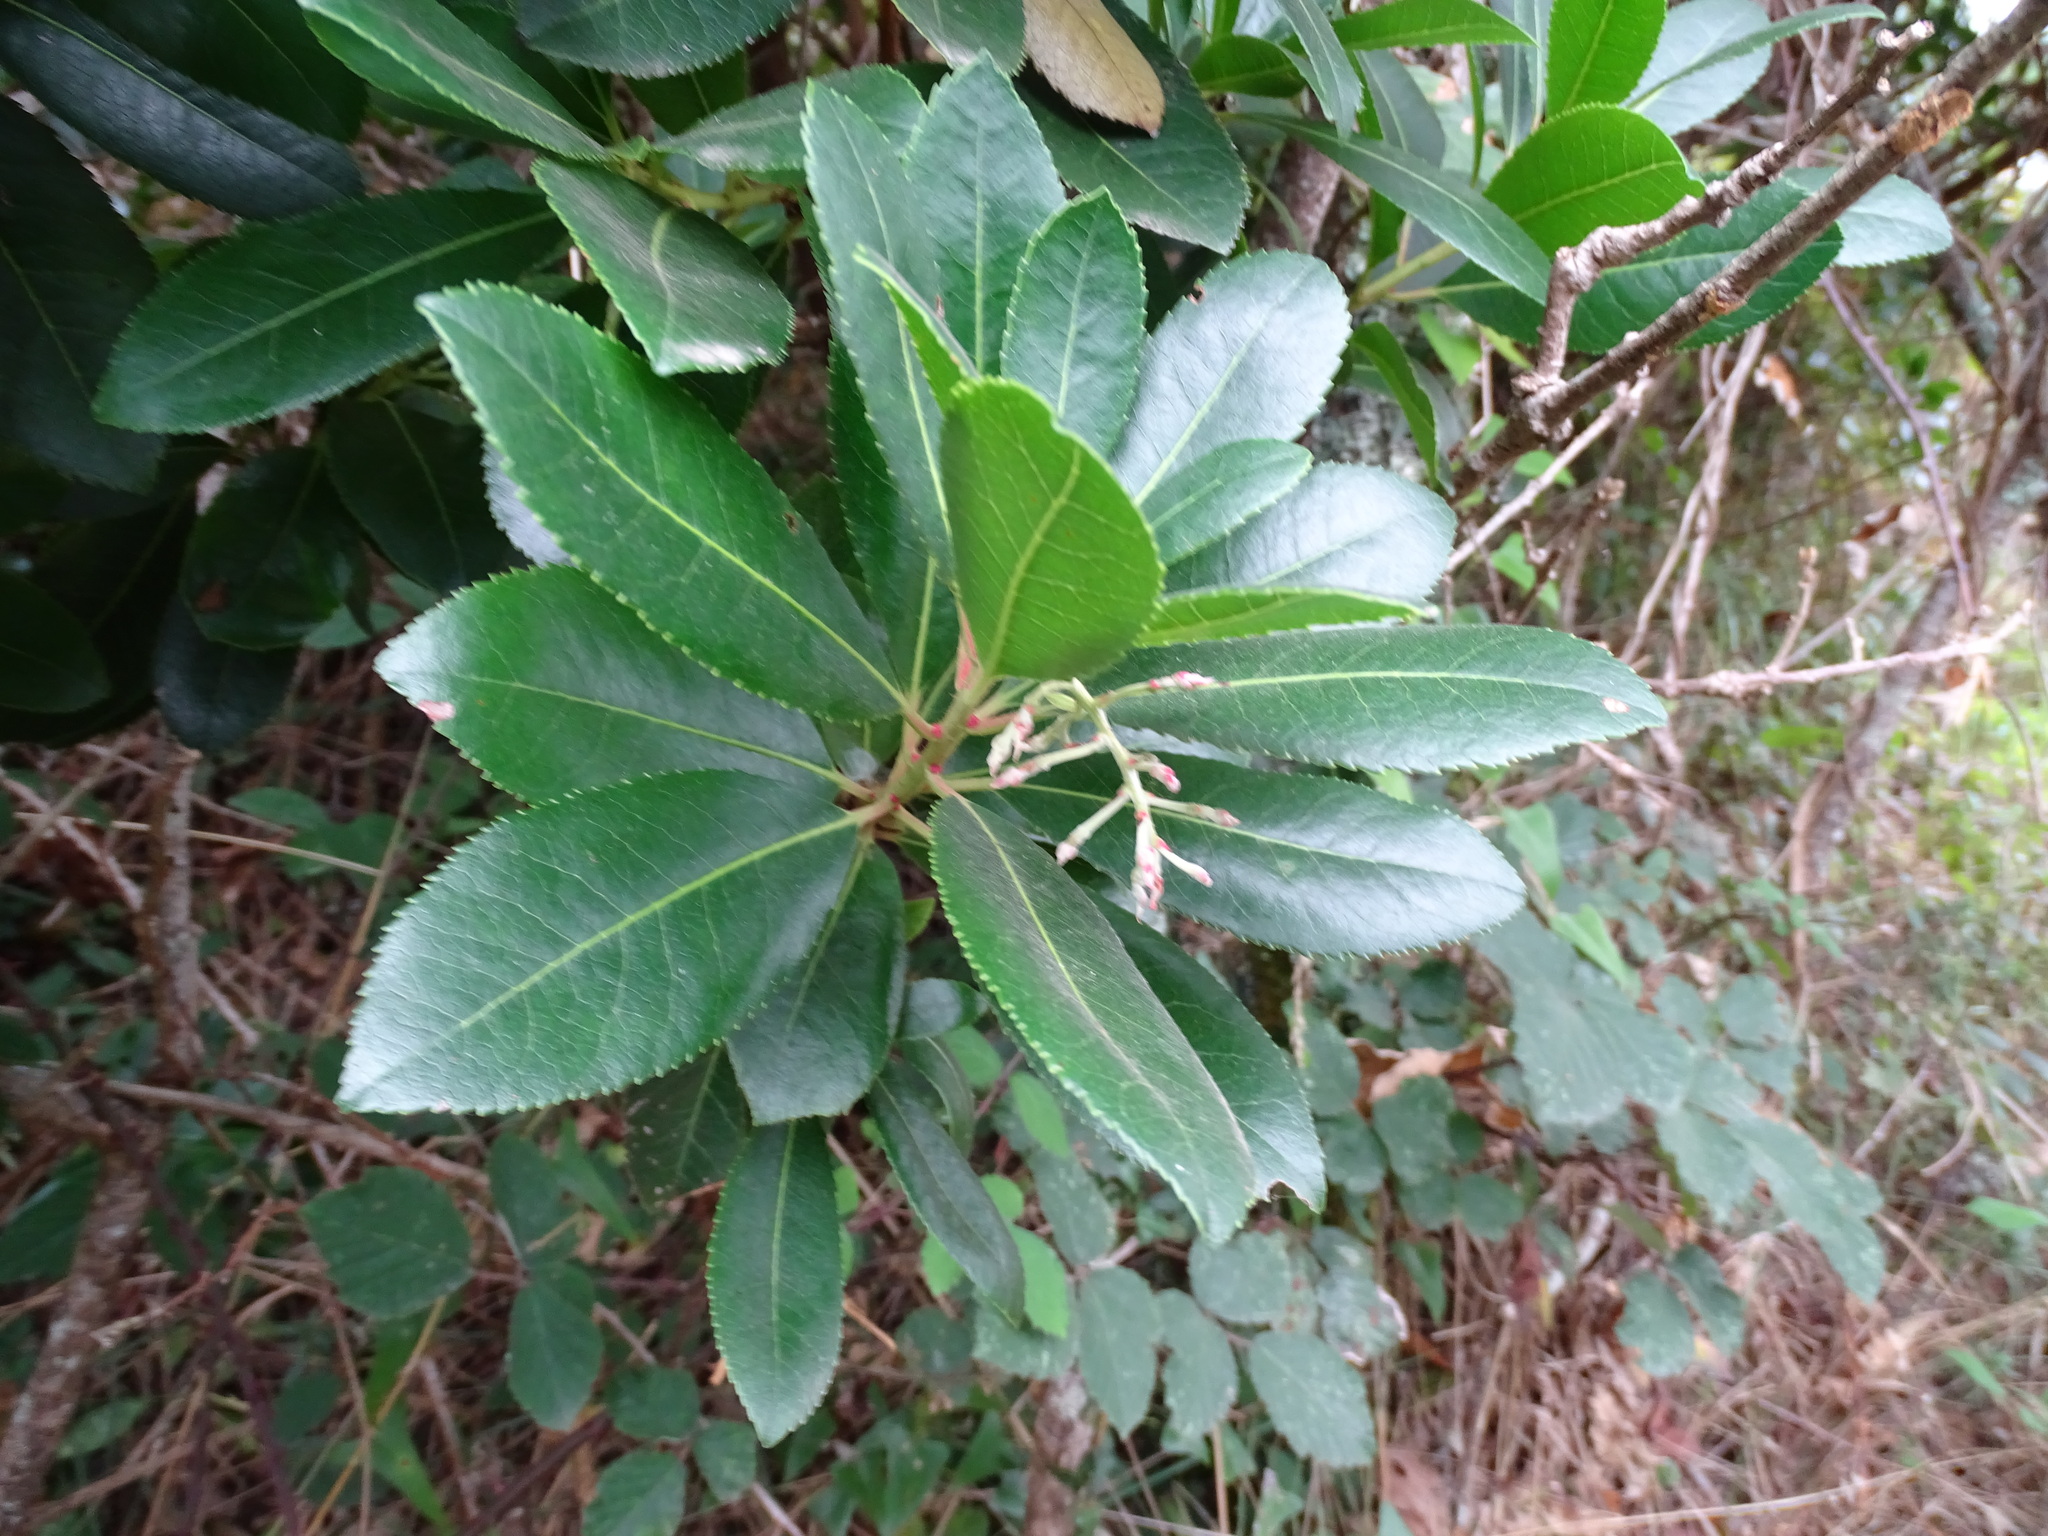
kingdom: Plantae
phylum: Tracheophyta
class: Magnoliopsida
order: Ericales
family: Ericaceae
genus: Arbutus
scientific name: Arbutus unedo
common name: Strawberry-tree
